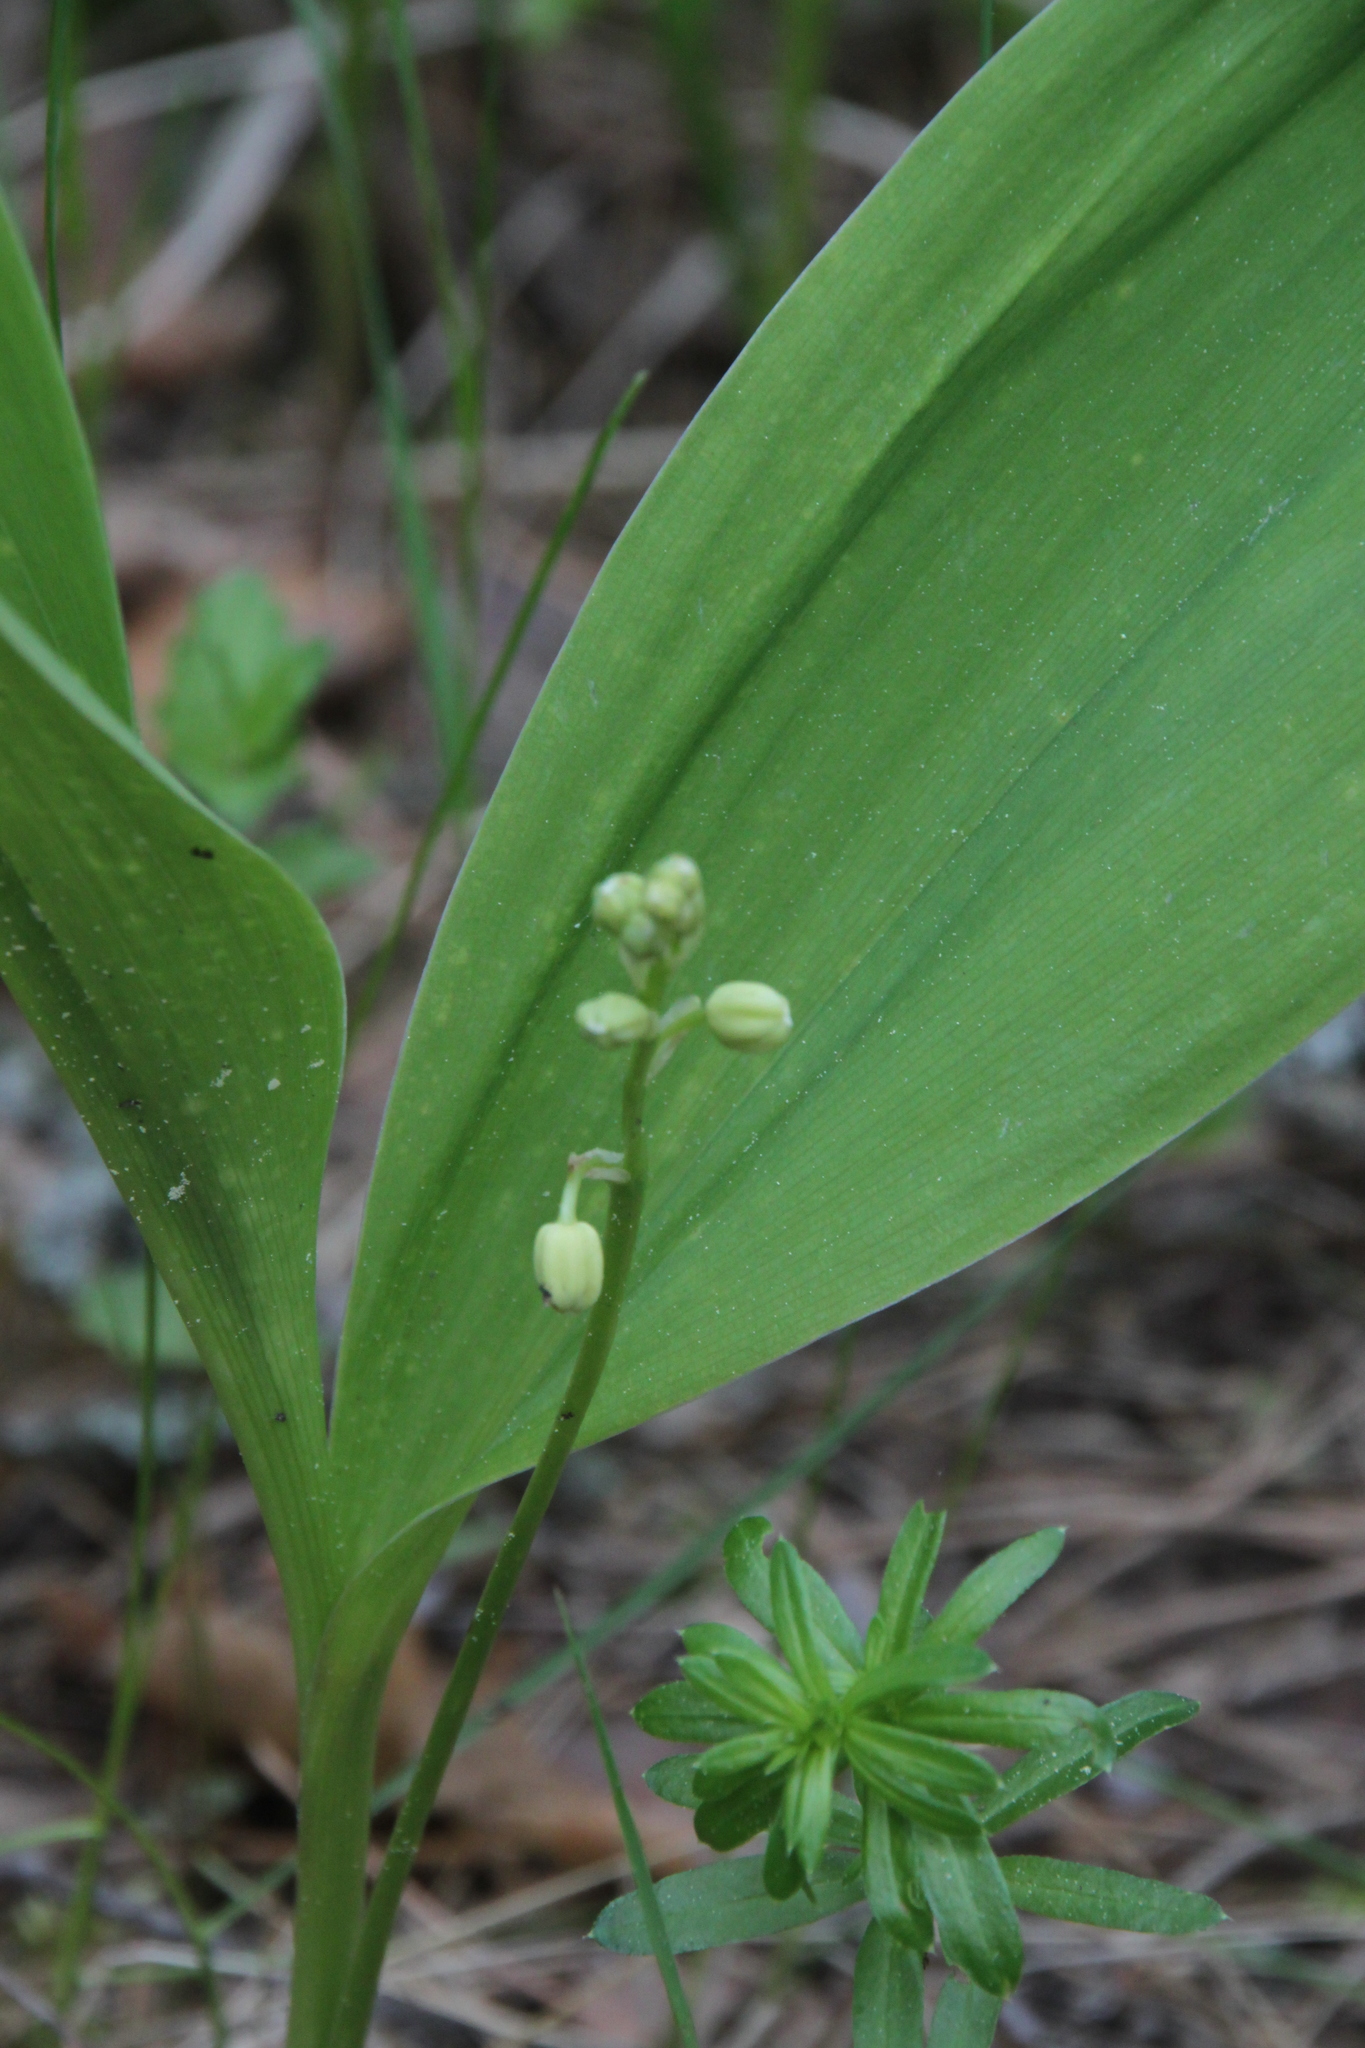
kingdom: Plantae
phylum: Tracheophyta
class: Liliopsida
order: Asparagales
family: Asparagaceae
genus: Convallaria
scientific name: Convallaria majalis
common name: Lily-of-the-valley
